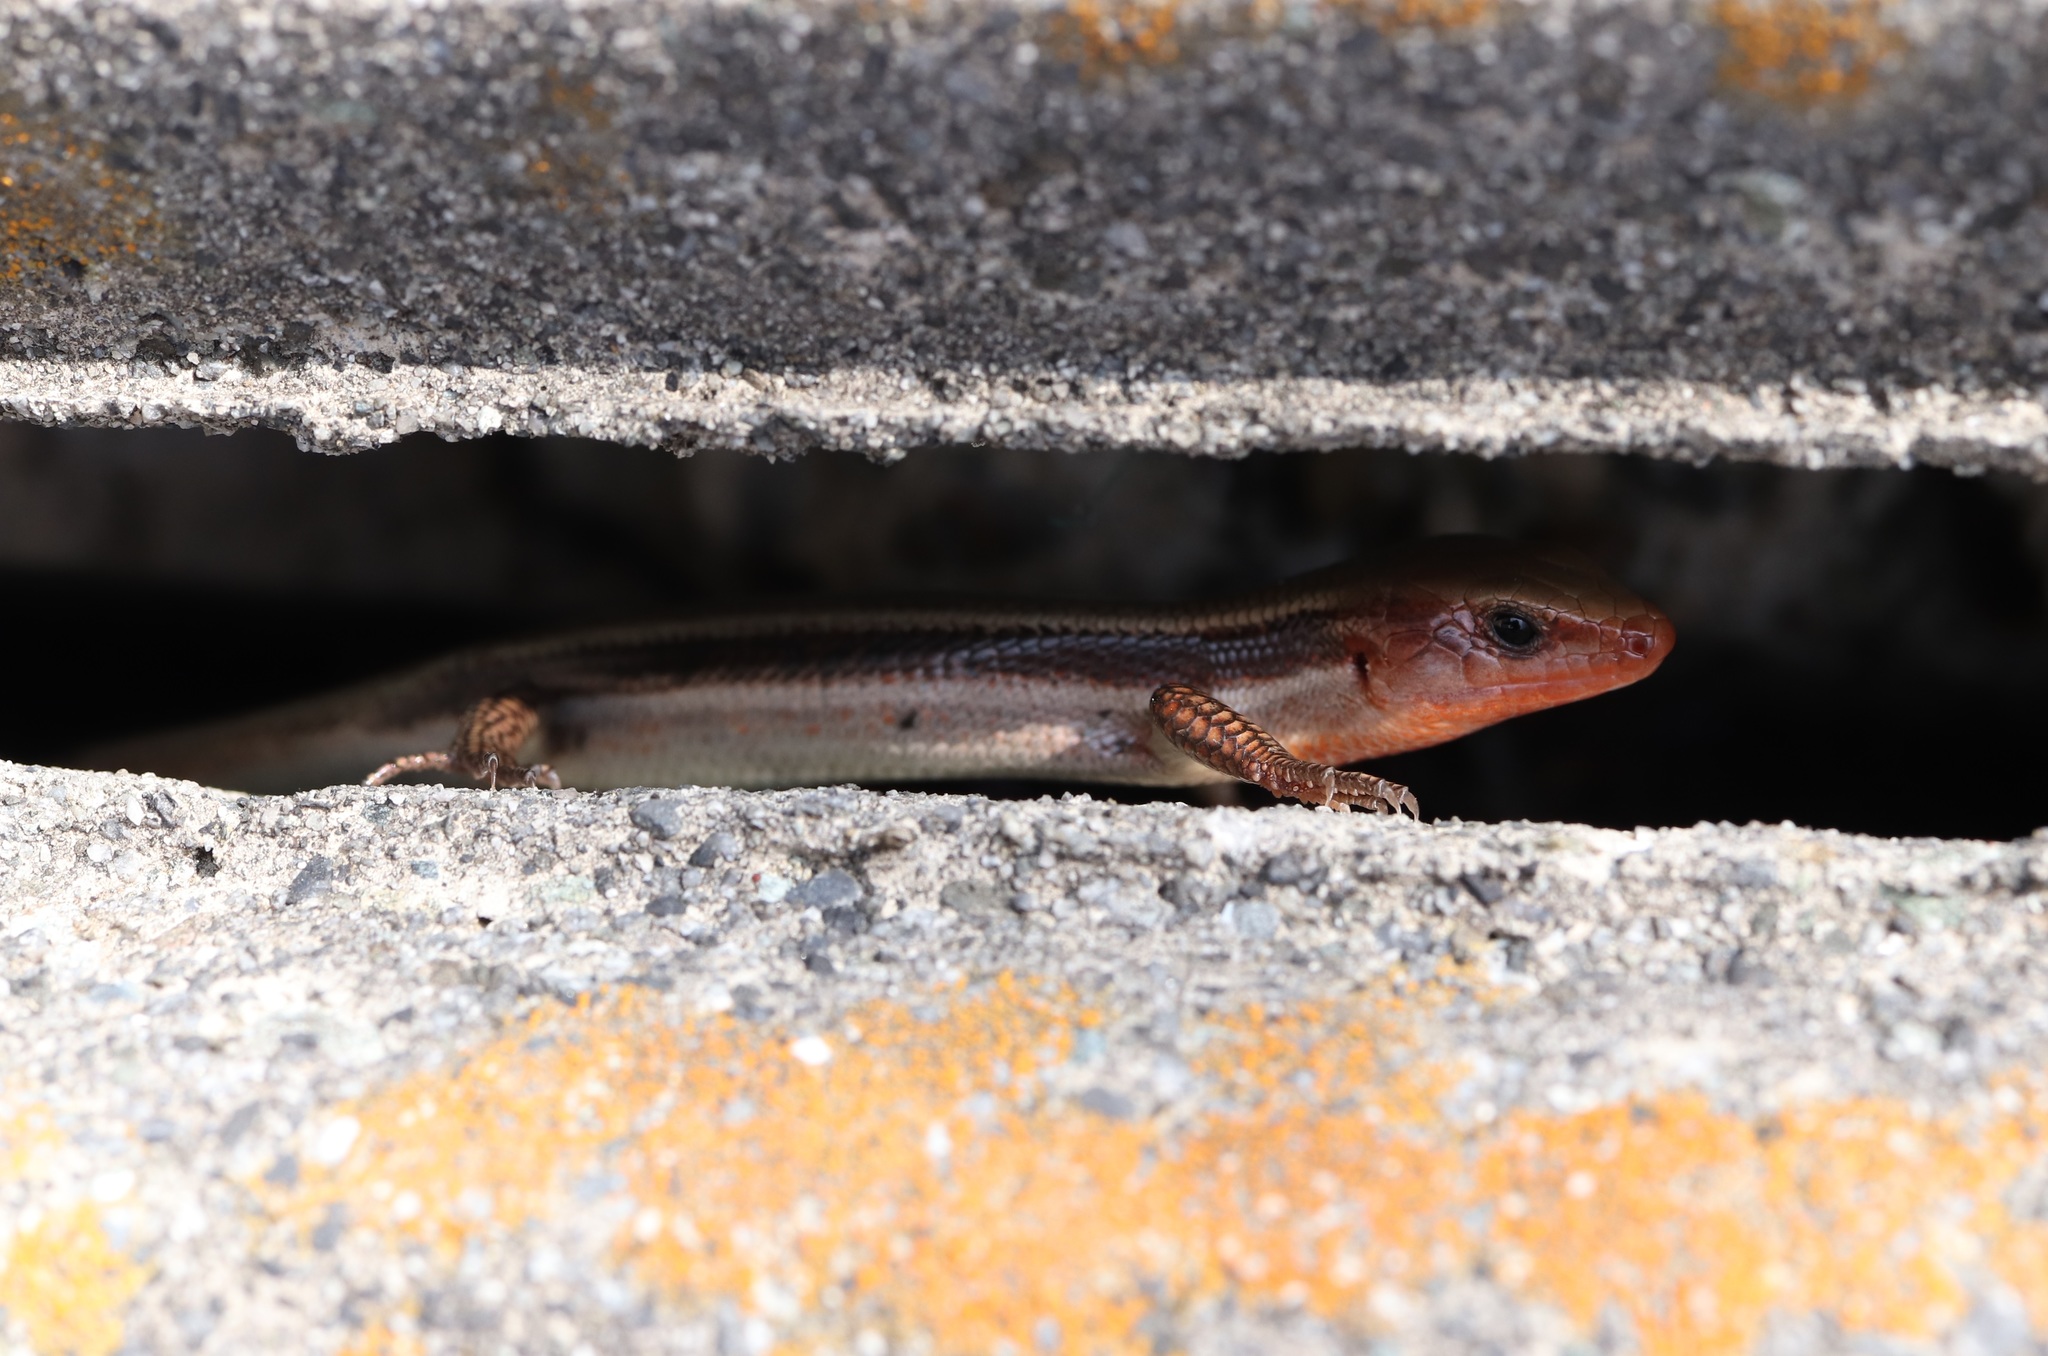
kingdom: Animalia
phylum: Chordata
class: Squamata
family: Scincidae
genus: Plestiodon
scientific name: Plestiodon finitimus
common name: Far eastern skink
